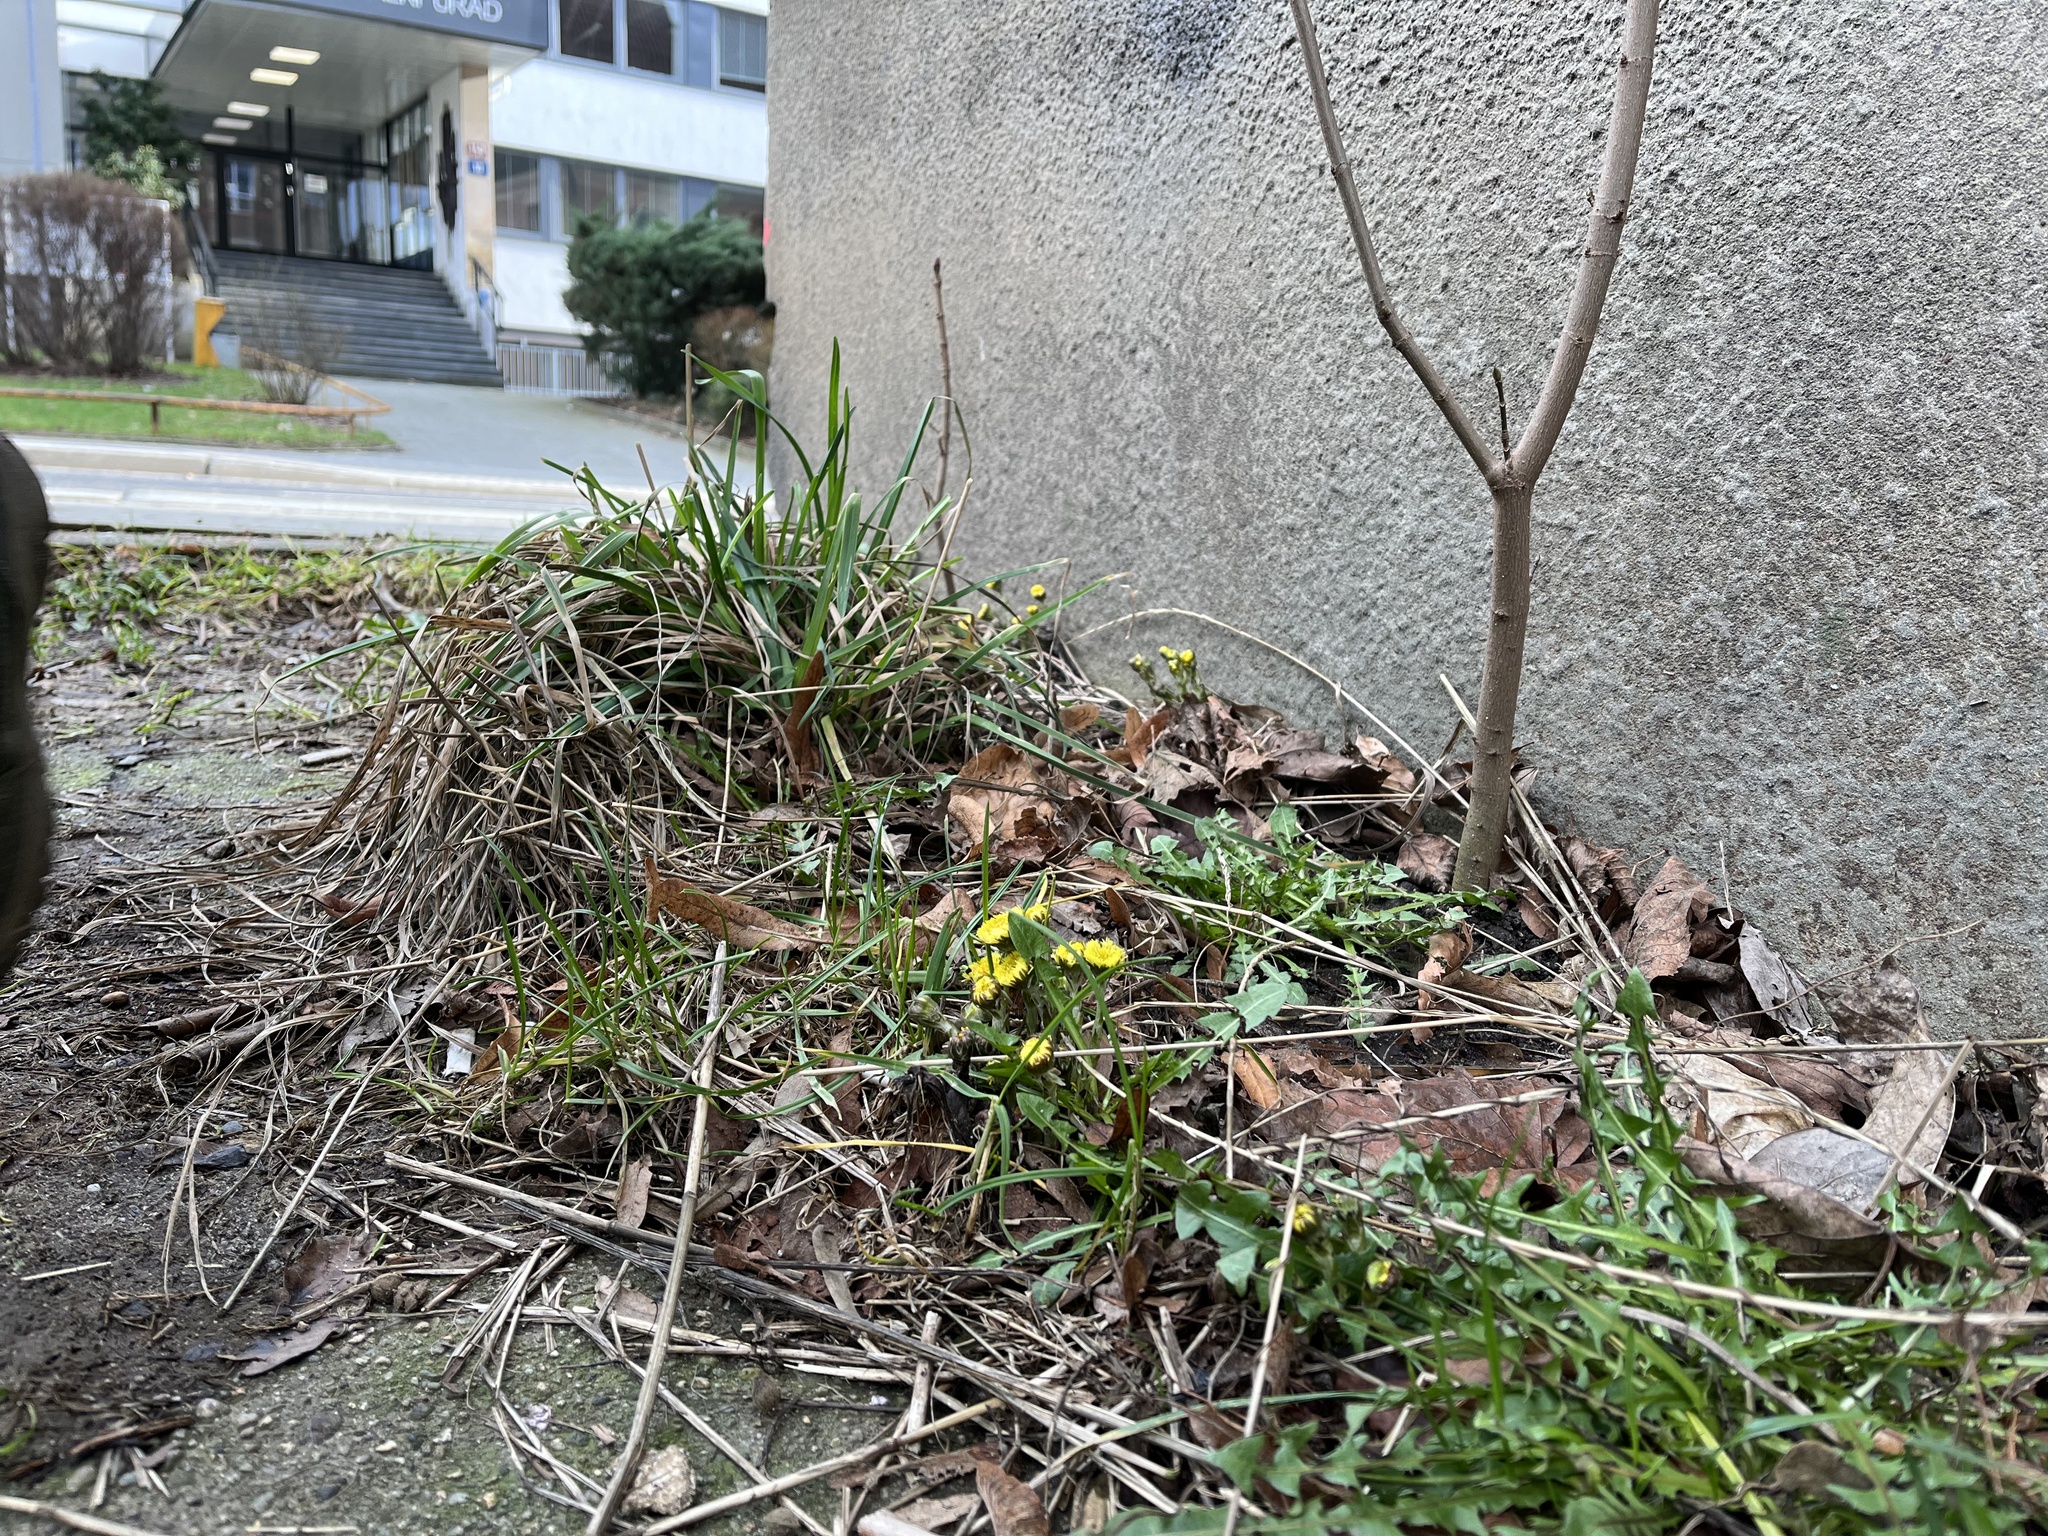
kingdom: Plantae
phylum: Tracheophyta
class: Magnoliopsida
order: Asterales
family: Asteraceae
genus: Tussilago
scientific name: Tussilago farfara
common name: Coltsfoot
